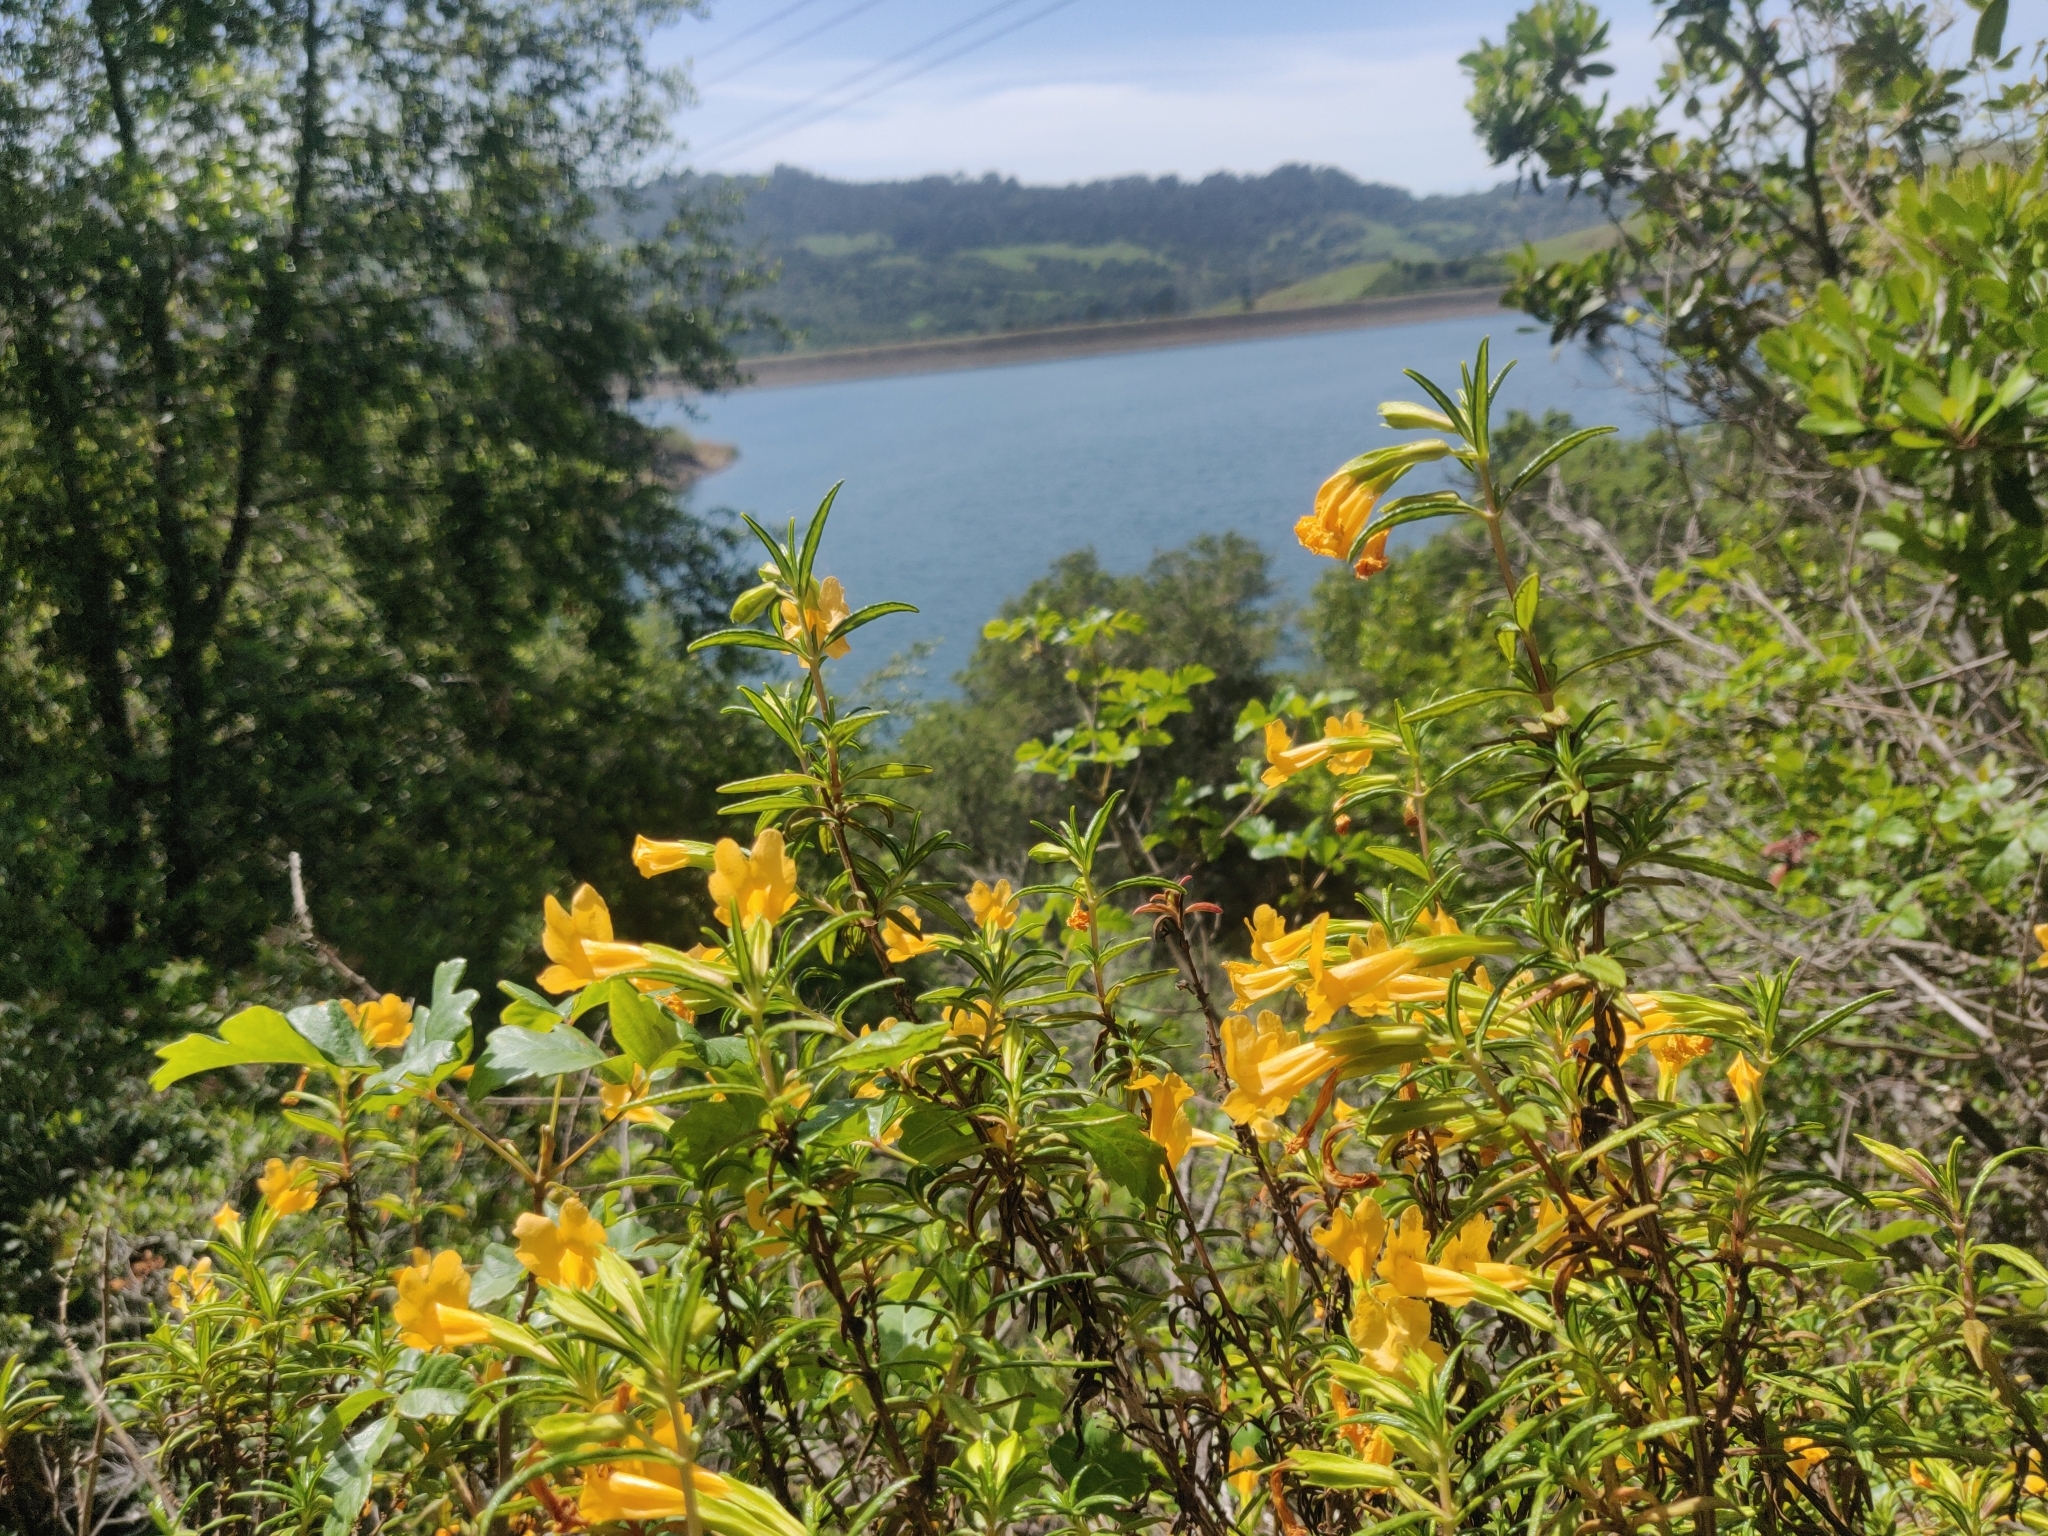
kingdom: Plantae
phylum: Tracheophyta
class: Magnoliopsida
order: Lamiales
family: Phrymaceae
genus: Diplacus
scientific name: Diplacus aurantiacus
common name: Bush monkey-flower
